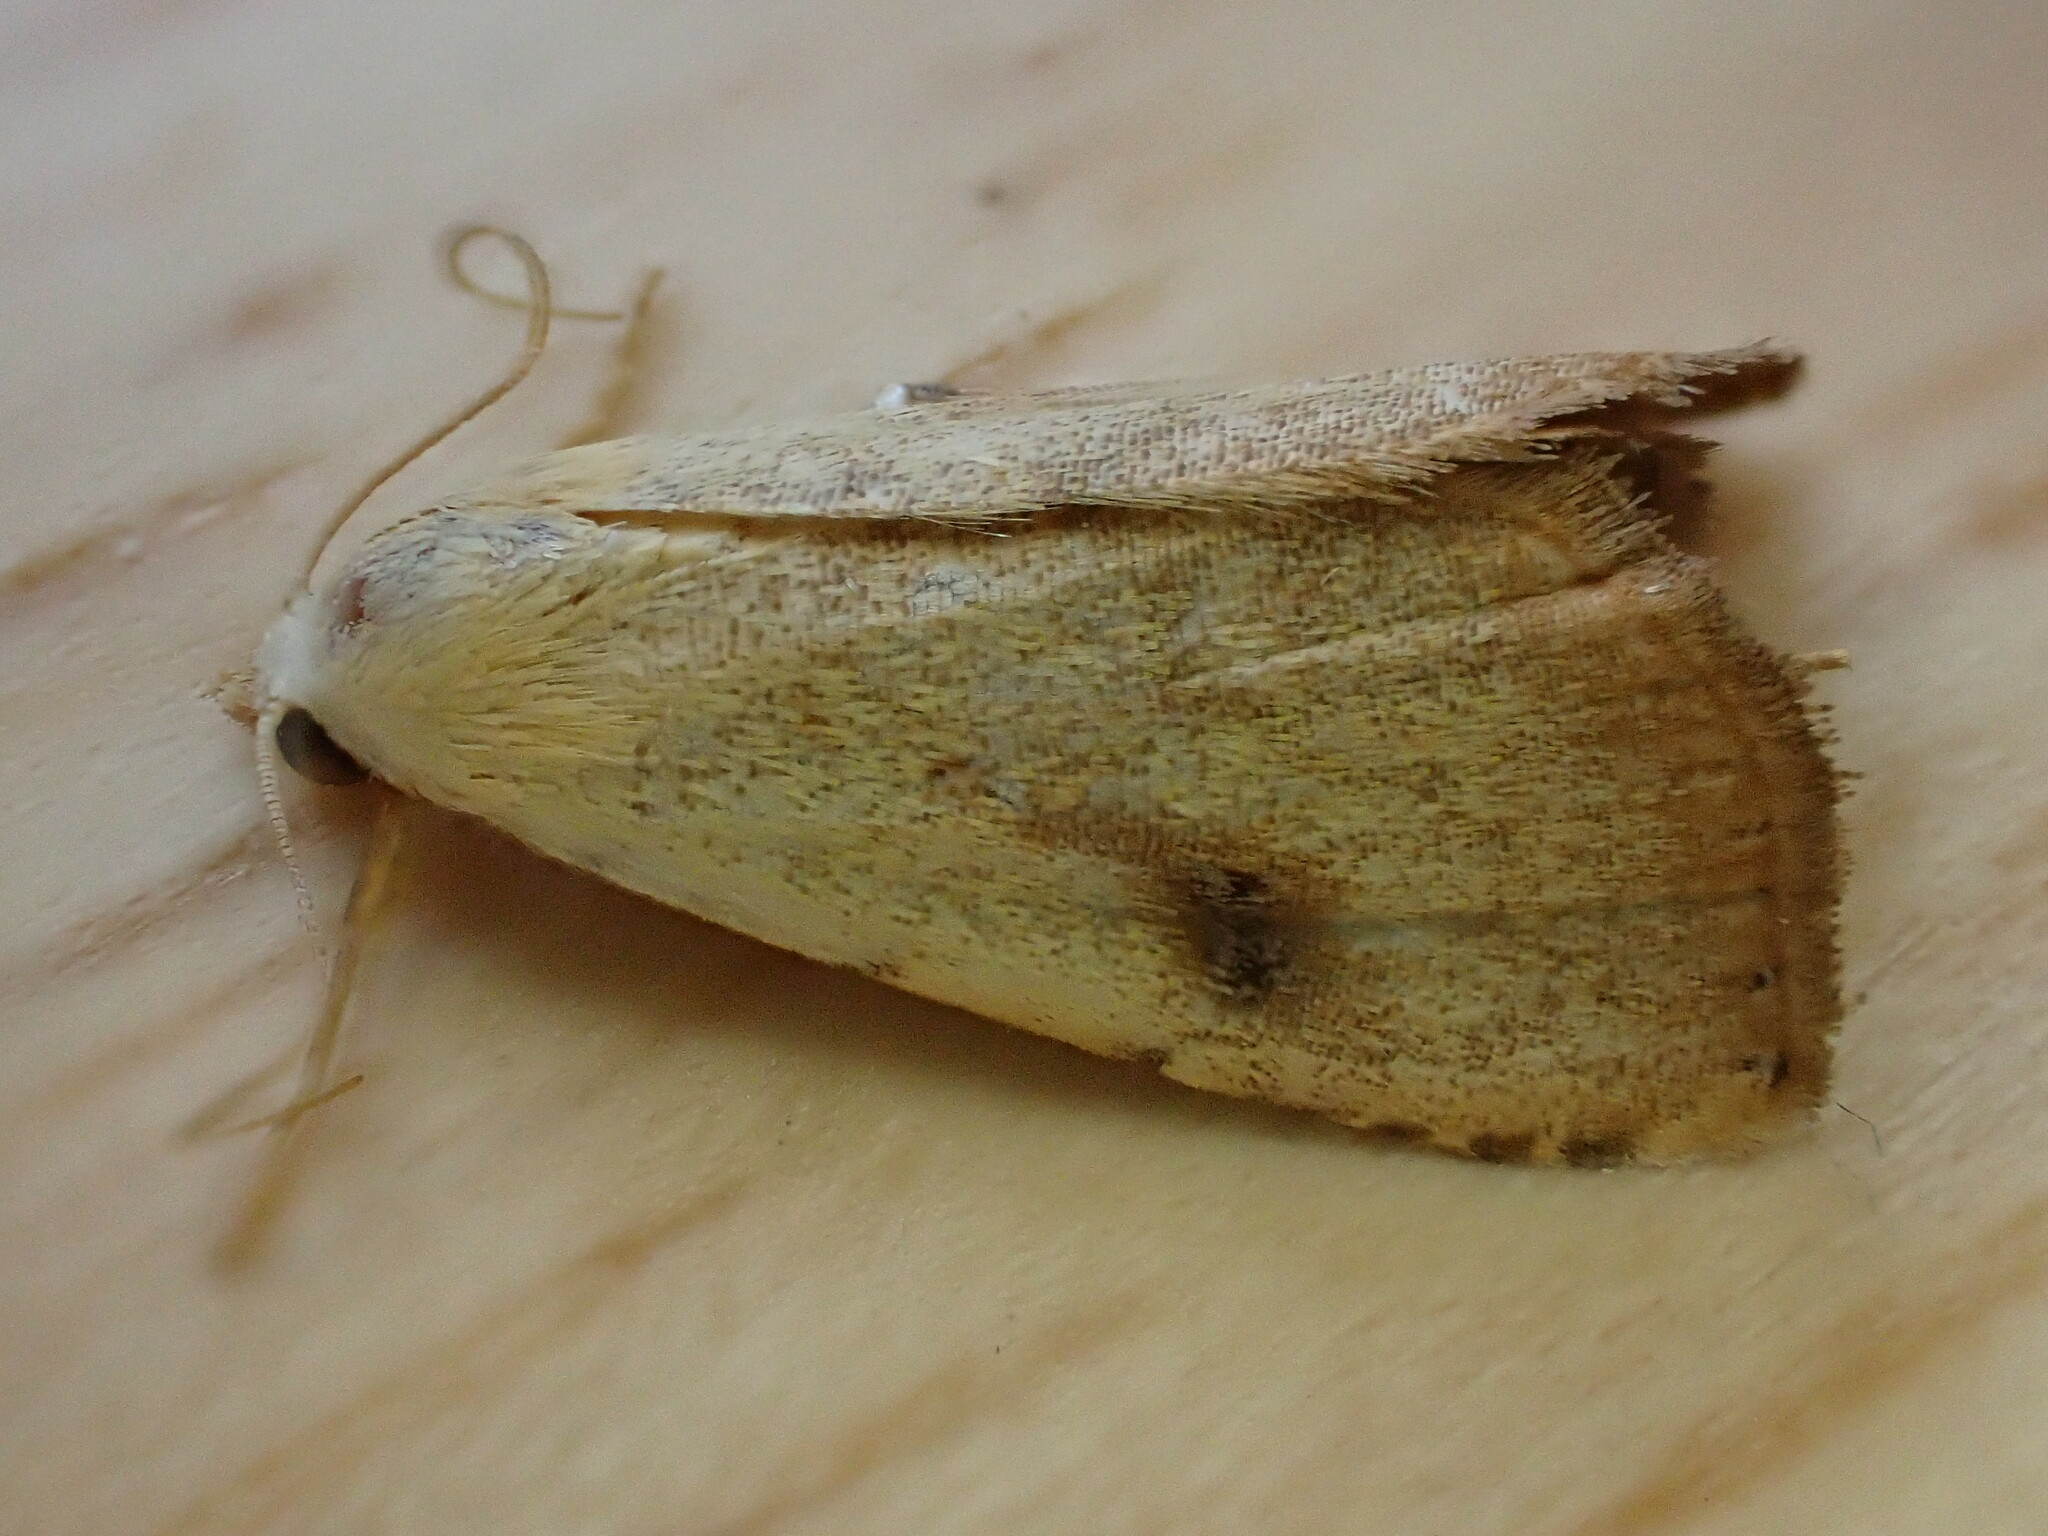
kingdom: Animalia
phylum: Arthropoda
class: Insecta
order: Lepidoptera
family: Erebidae
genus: Rivula
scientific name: Rivula sericealis
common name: Straw dot
